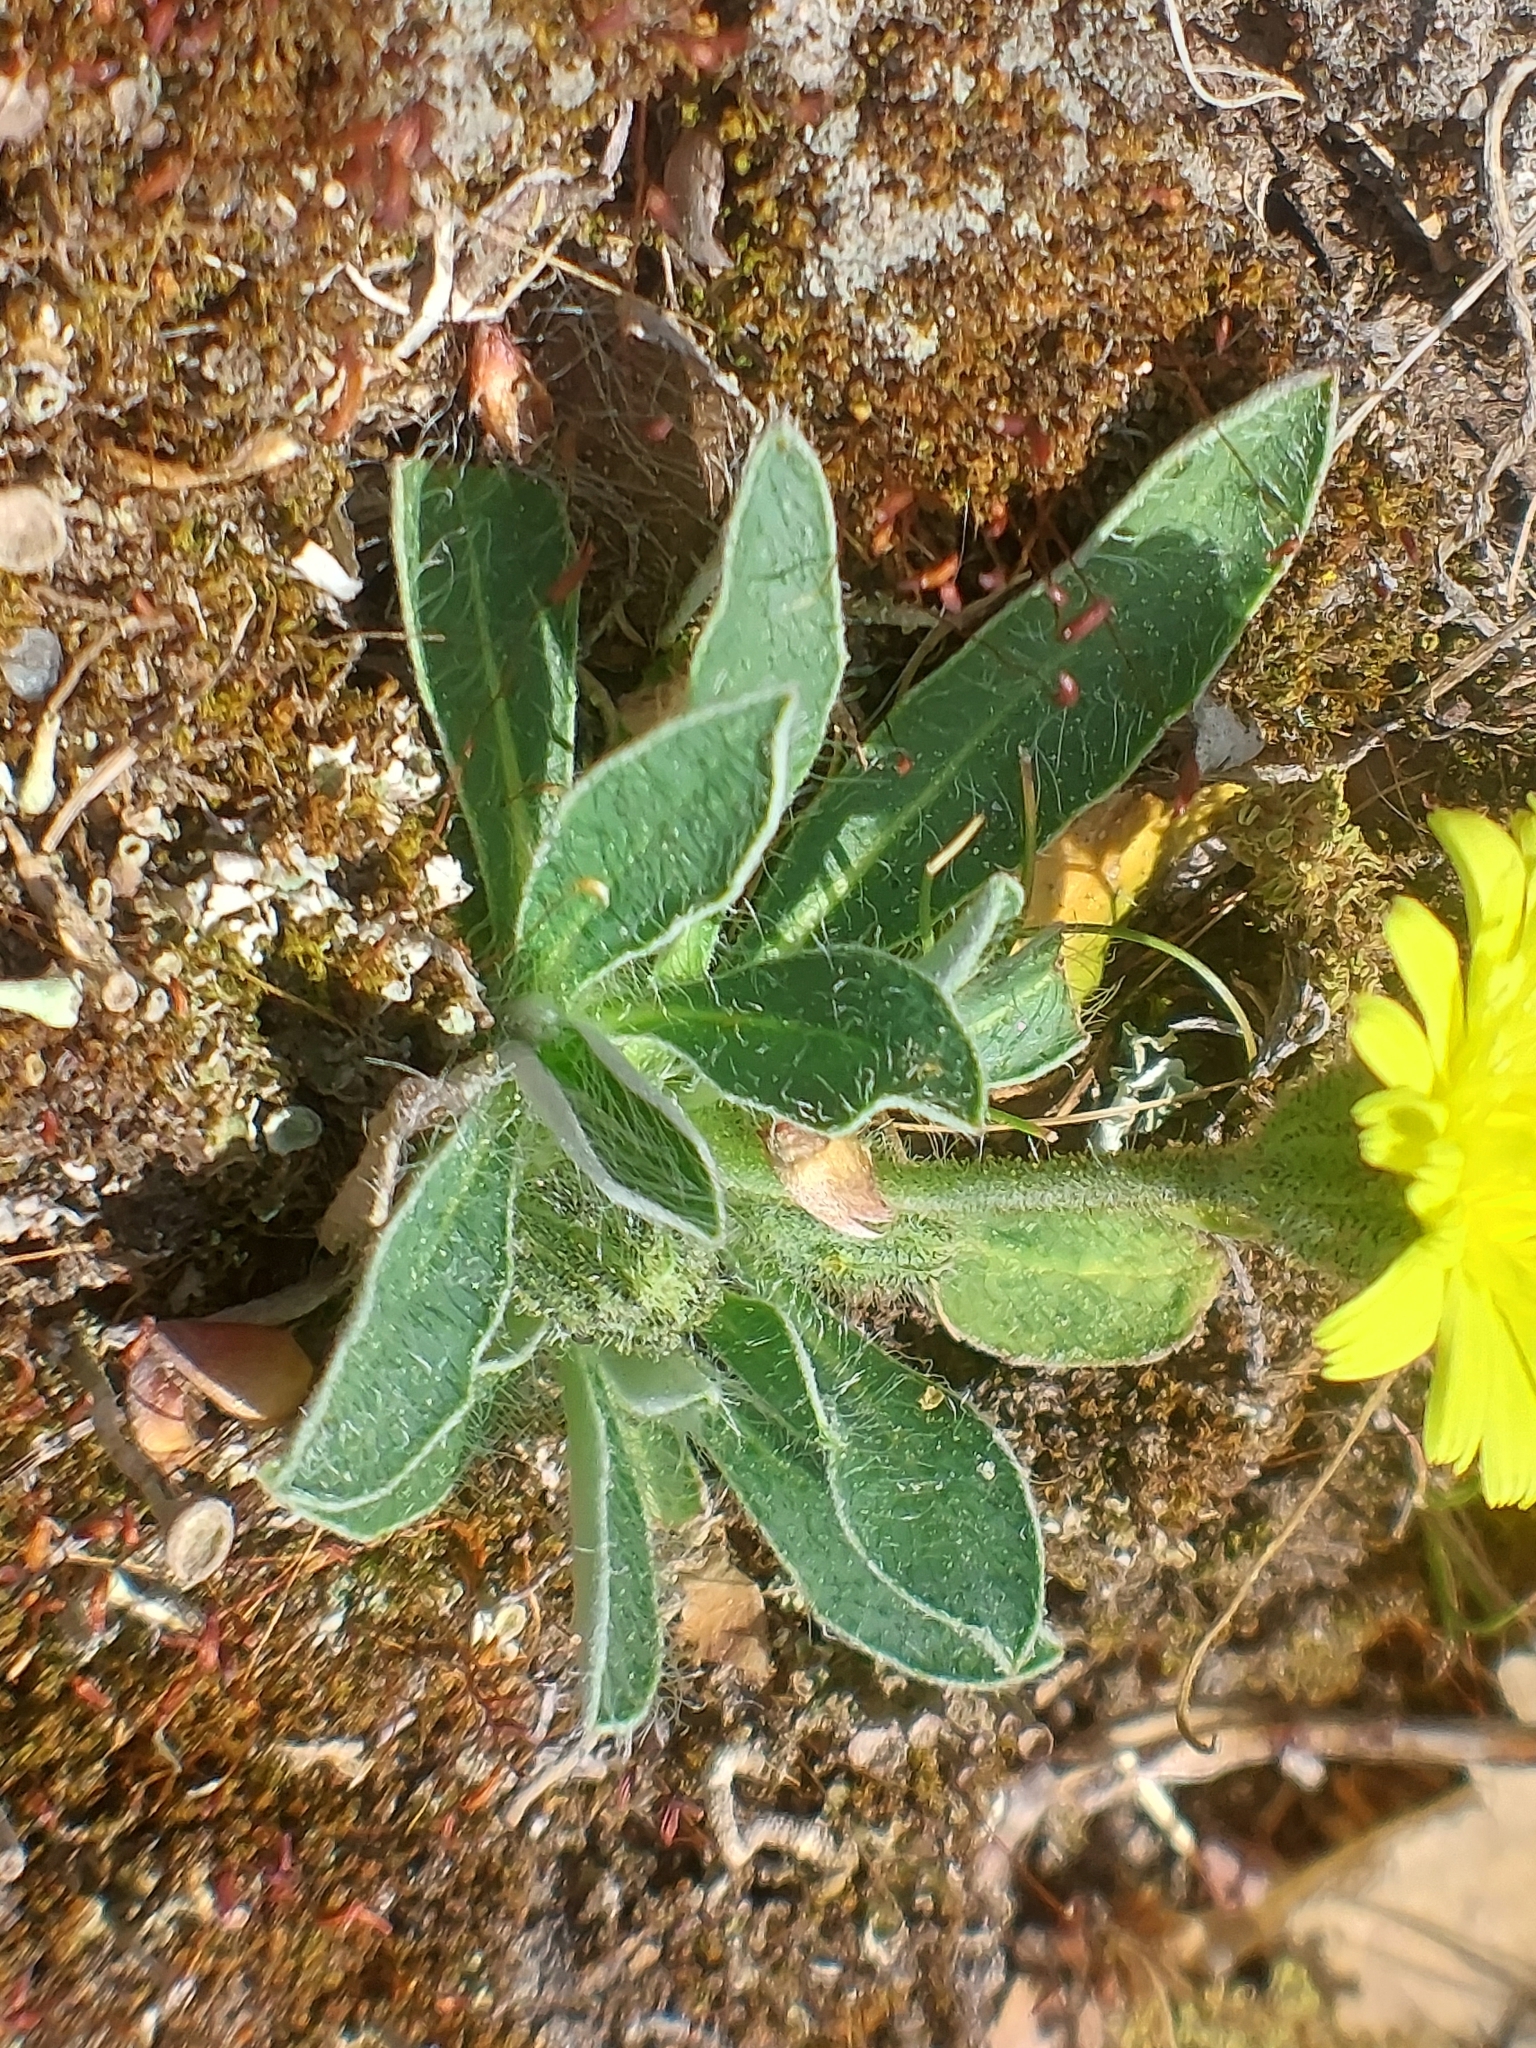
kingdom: Plantae
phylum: Tracheophyta
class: Magnoliopsida
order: Asterales
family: Asteraceae
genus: Pilosella
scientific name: Pilosella officinarum
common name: Mouse-ear hawkweed
